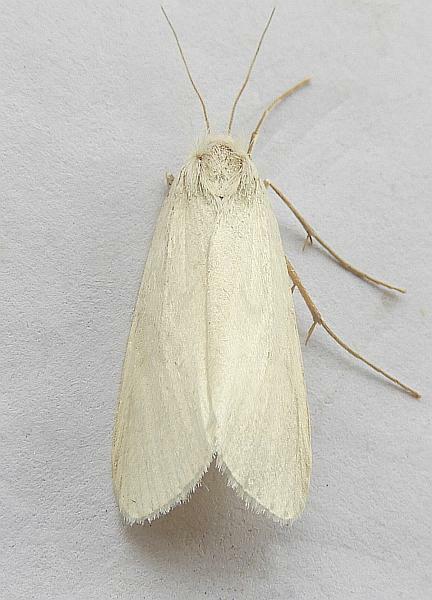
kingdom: Animalia
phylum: Arthropoda
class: Insecta
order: Lepidoptera
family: Crambidae
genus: Rupela
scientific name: Rupela tinctella
